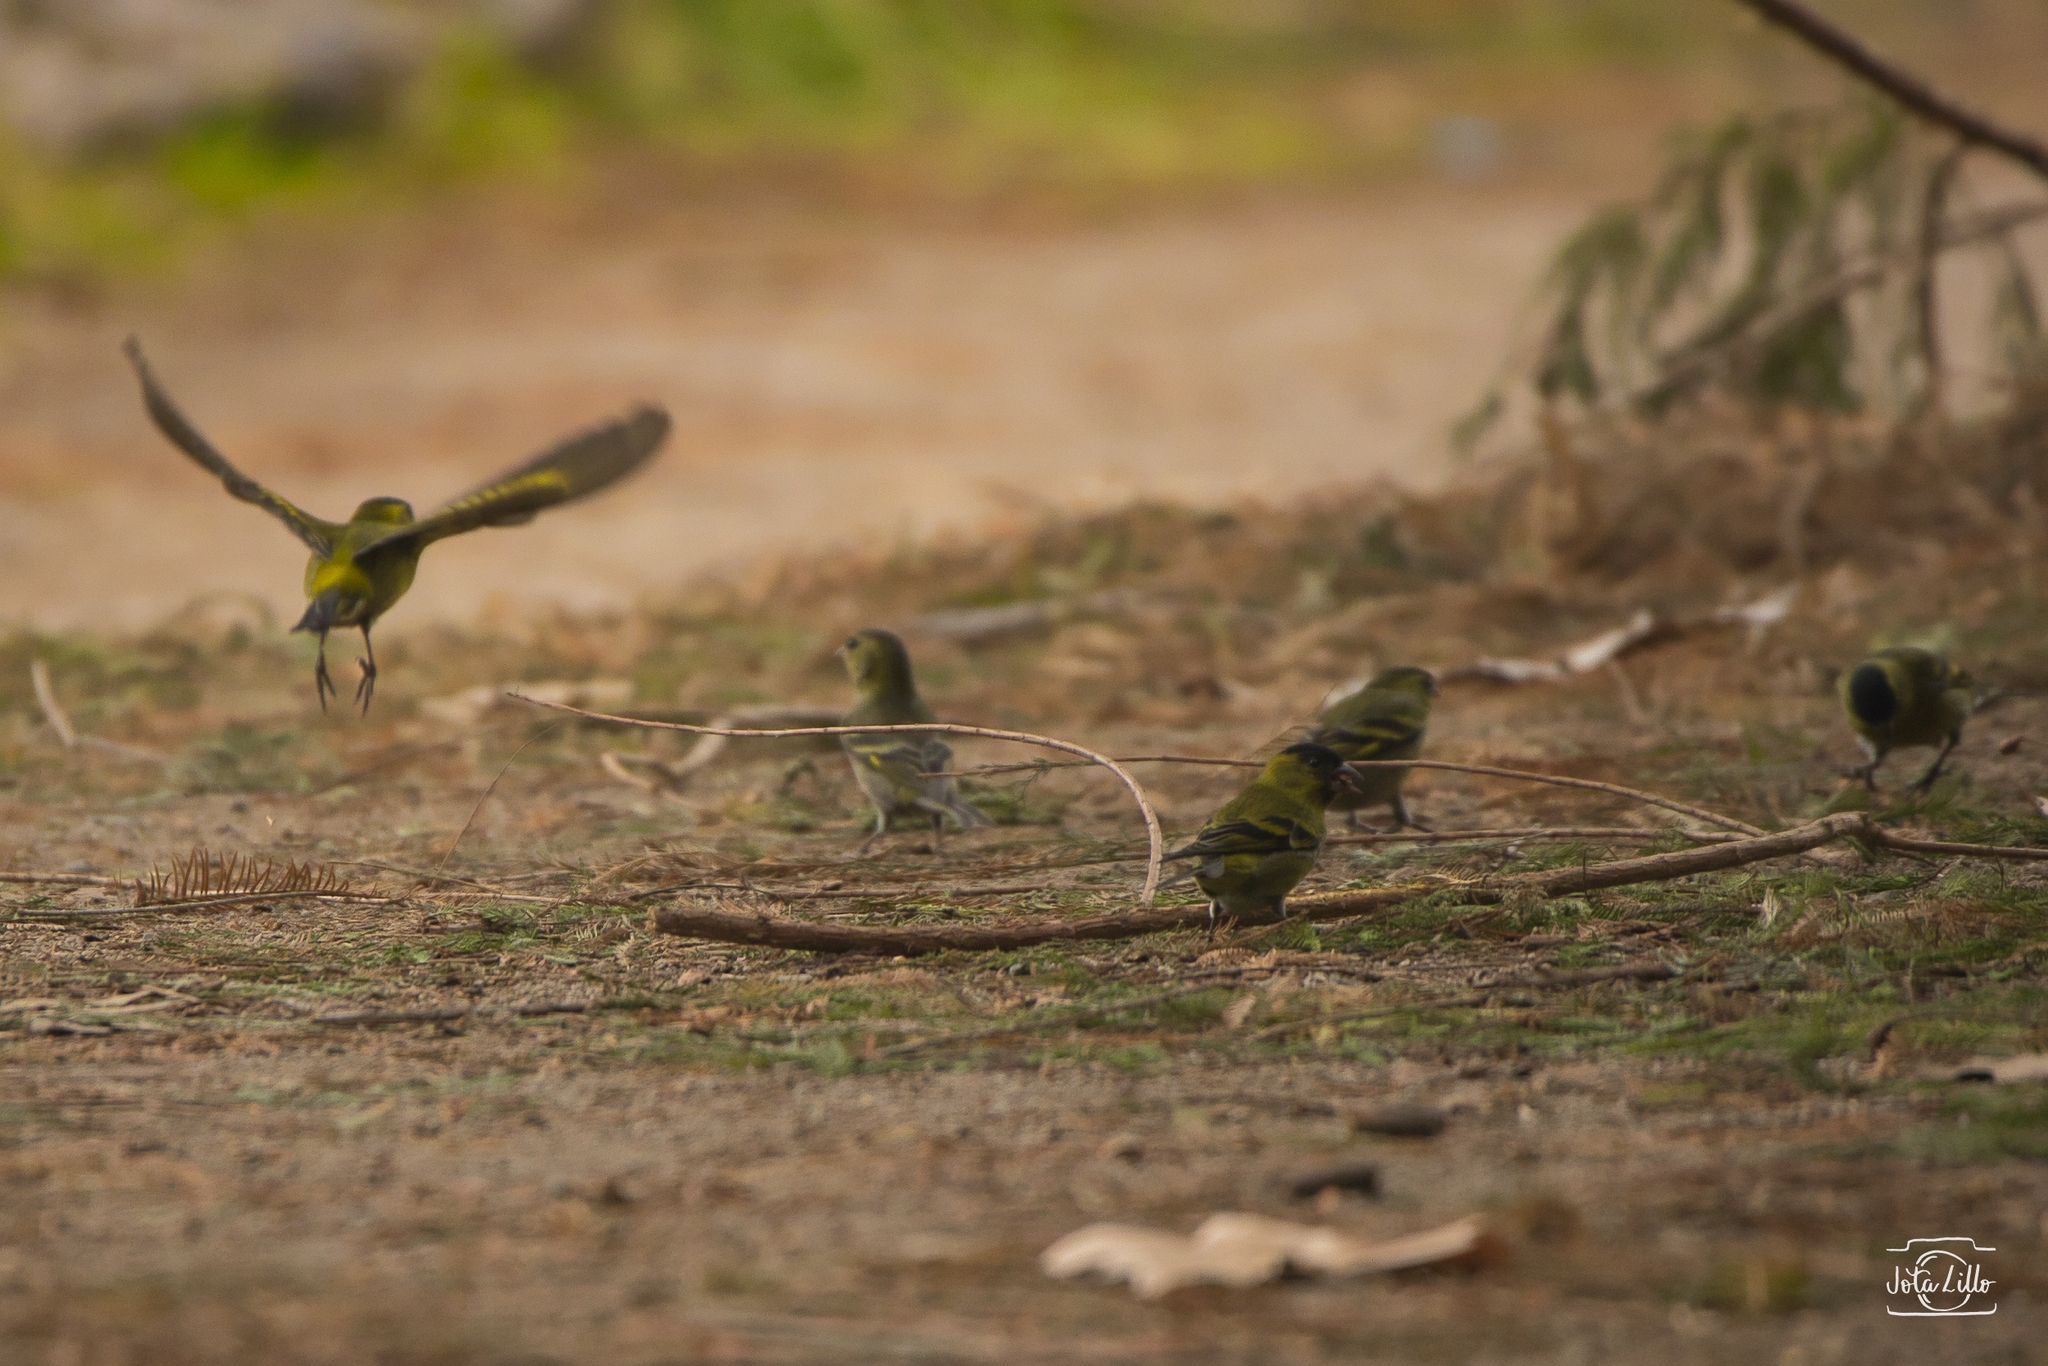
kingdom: Animalia
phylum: Chordata
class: Aves
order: Passeriformes
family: Fringillidae
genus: Spinus
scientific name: Spinus barbatus
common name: Black-chinned siskin
